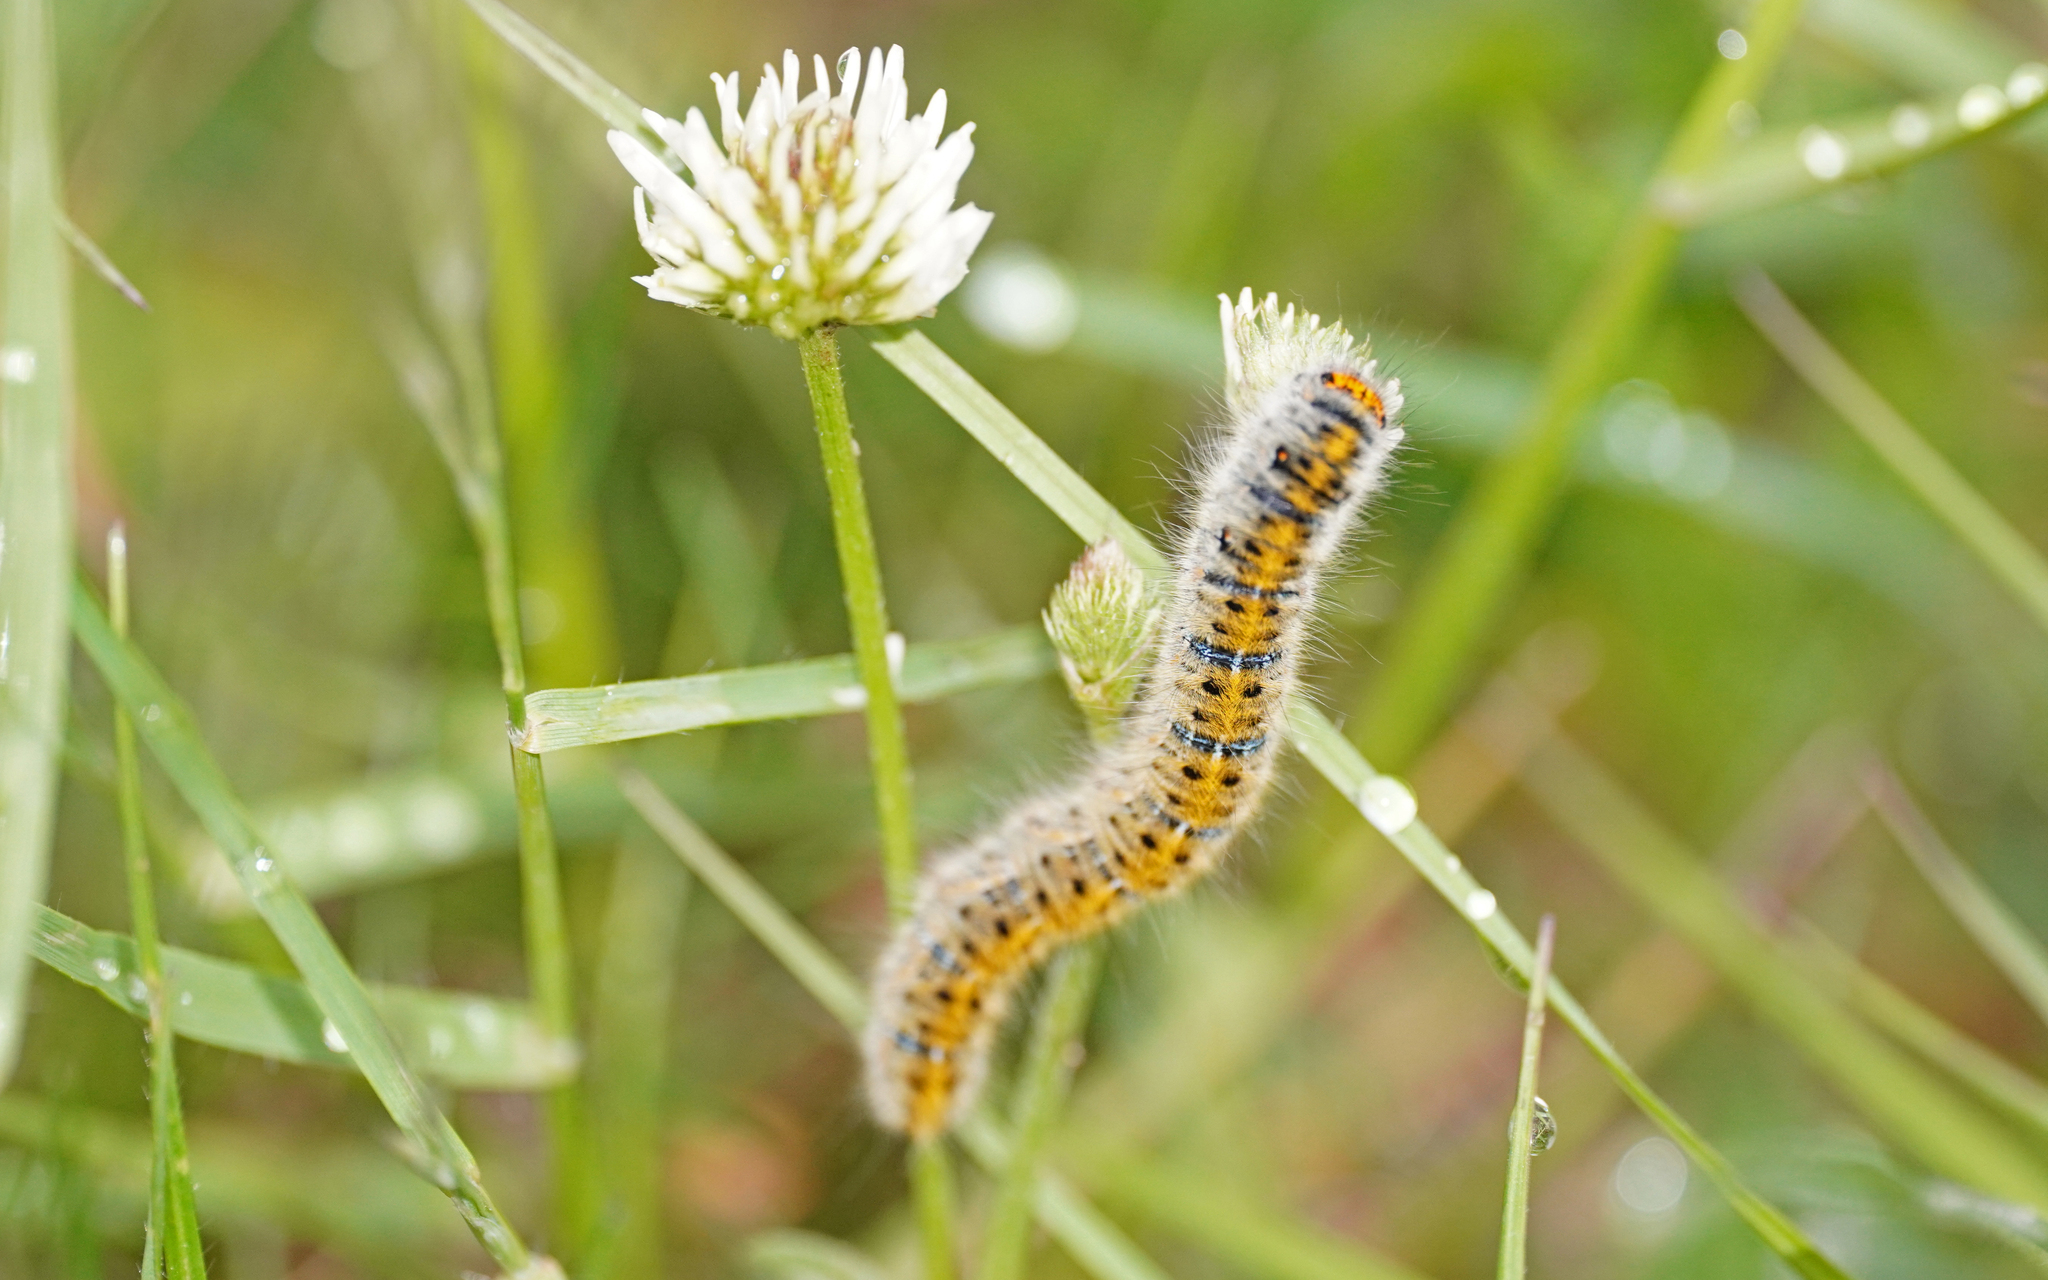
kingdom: Animalia
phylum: Arthropoda
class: Insecta
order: Lepidoptera
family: Lasiocampidae
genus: Lasiocampa
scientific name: Lasiocampa trifolii
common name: Grass eggar
